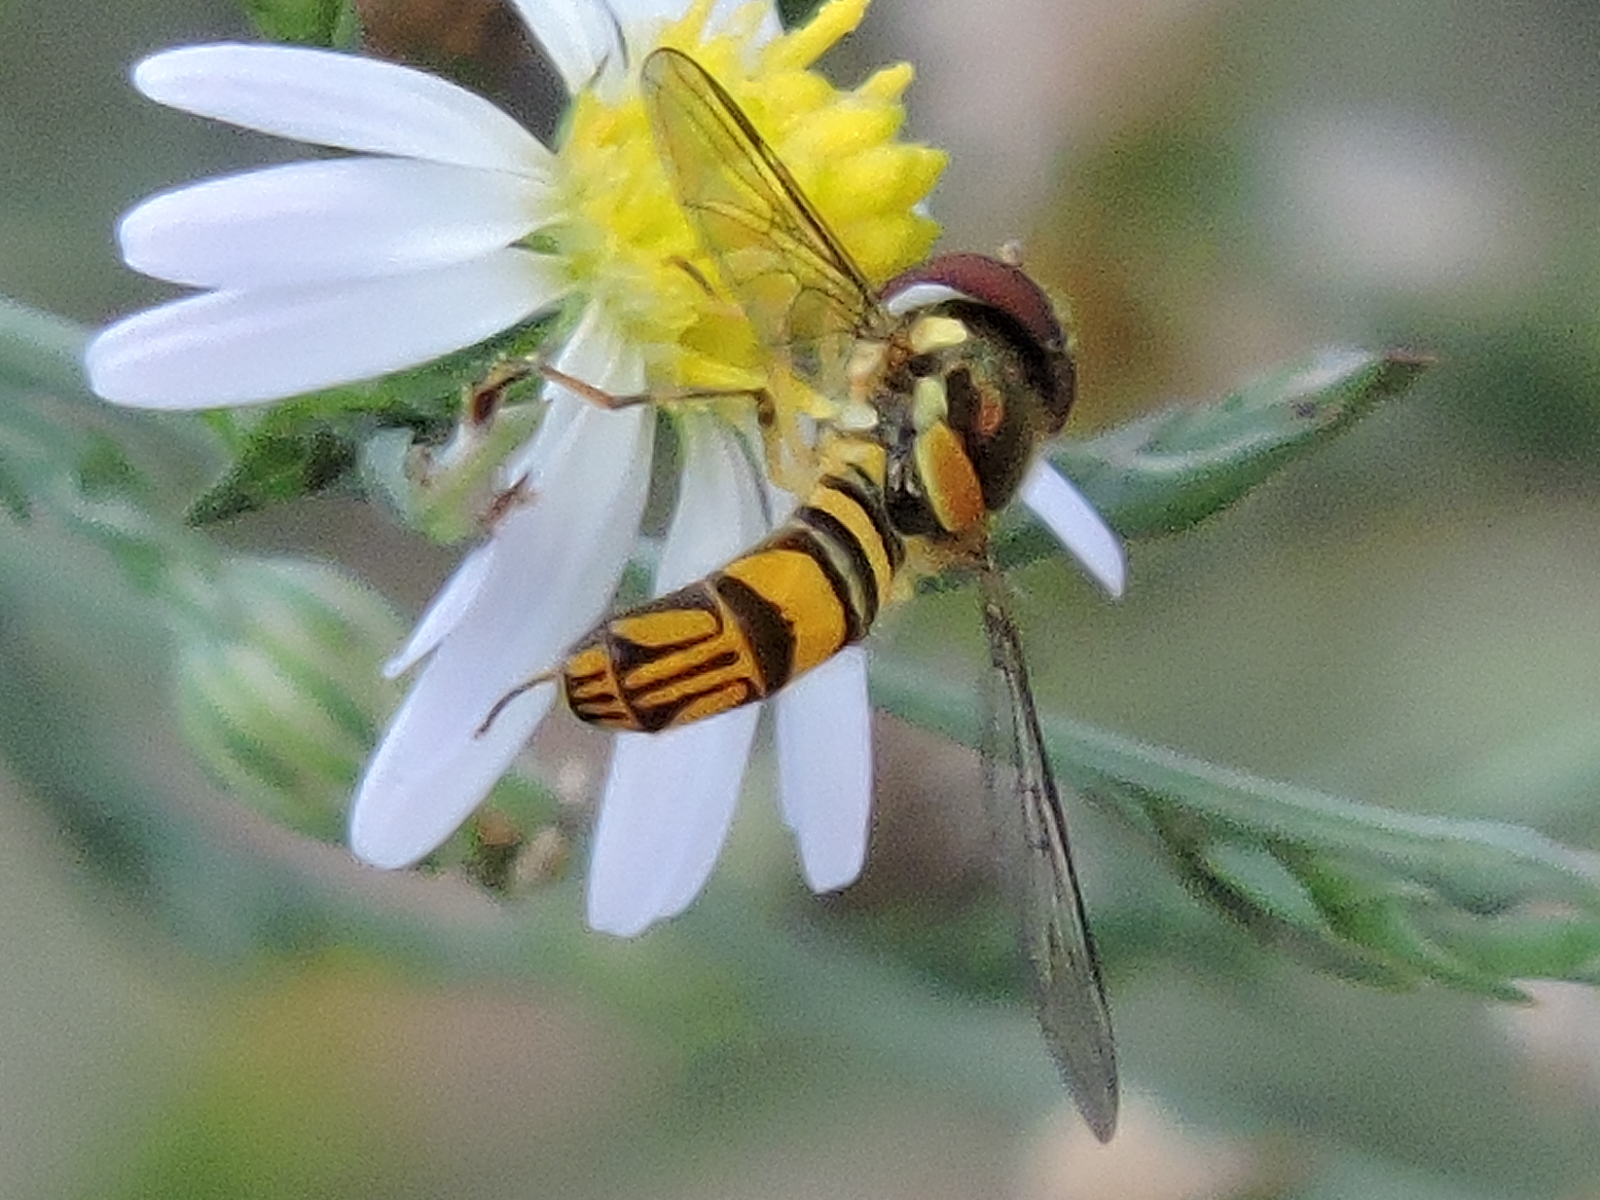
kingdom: Animalia
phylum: Arthropoda
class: Insecta
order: Diptera
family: Syrphidae
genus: Allograpta
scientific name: Allograpta obliqua
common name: Common oblique syrphid
